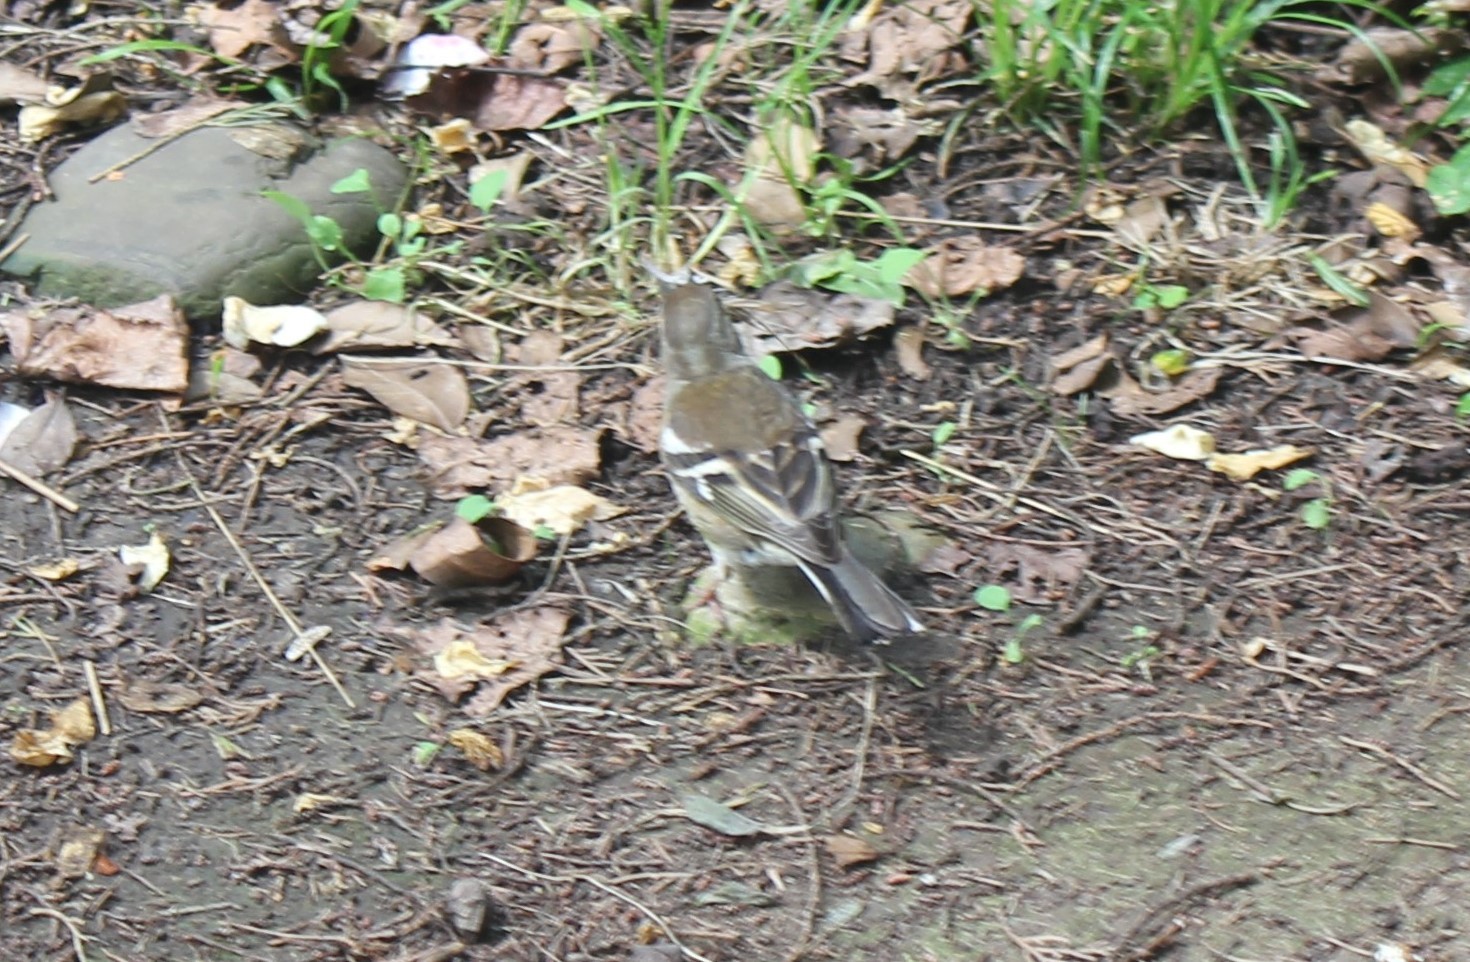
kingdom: Animalia
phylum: Chordata
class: Aves
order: Passeriformes
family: Fringillidae
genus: Fringilla
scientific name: Fringilla coelebs
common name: Common chaffinch
